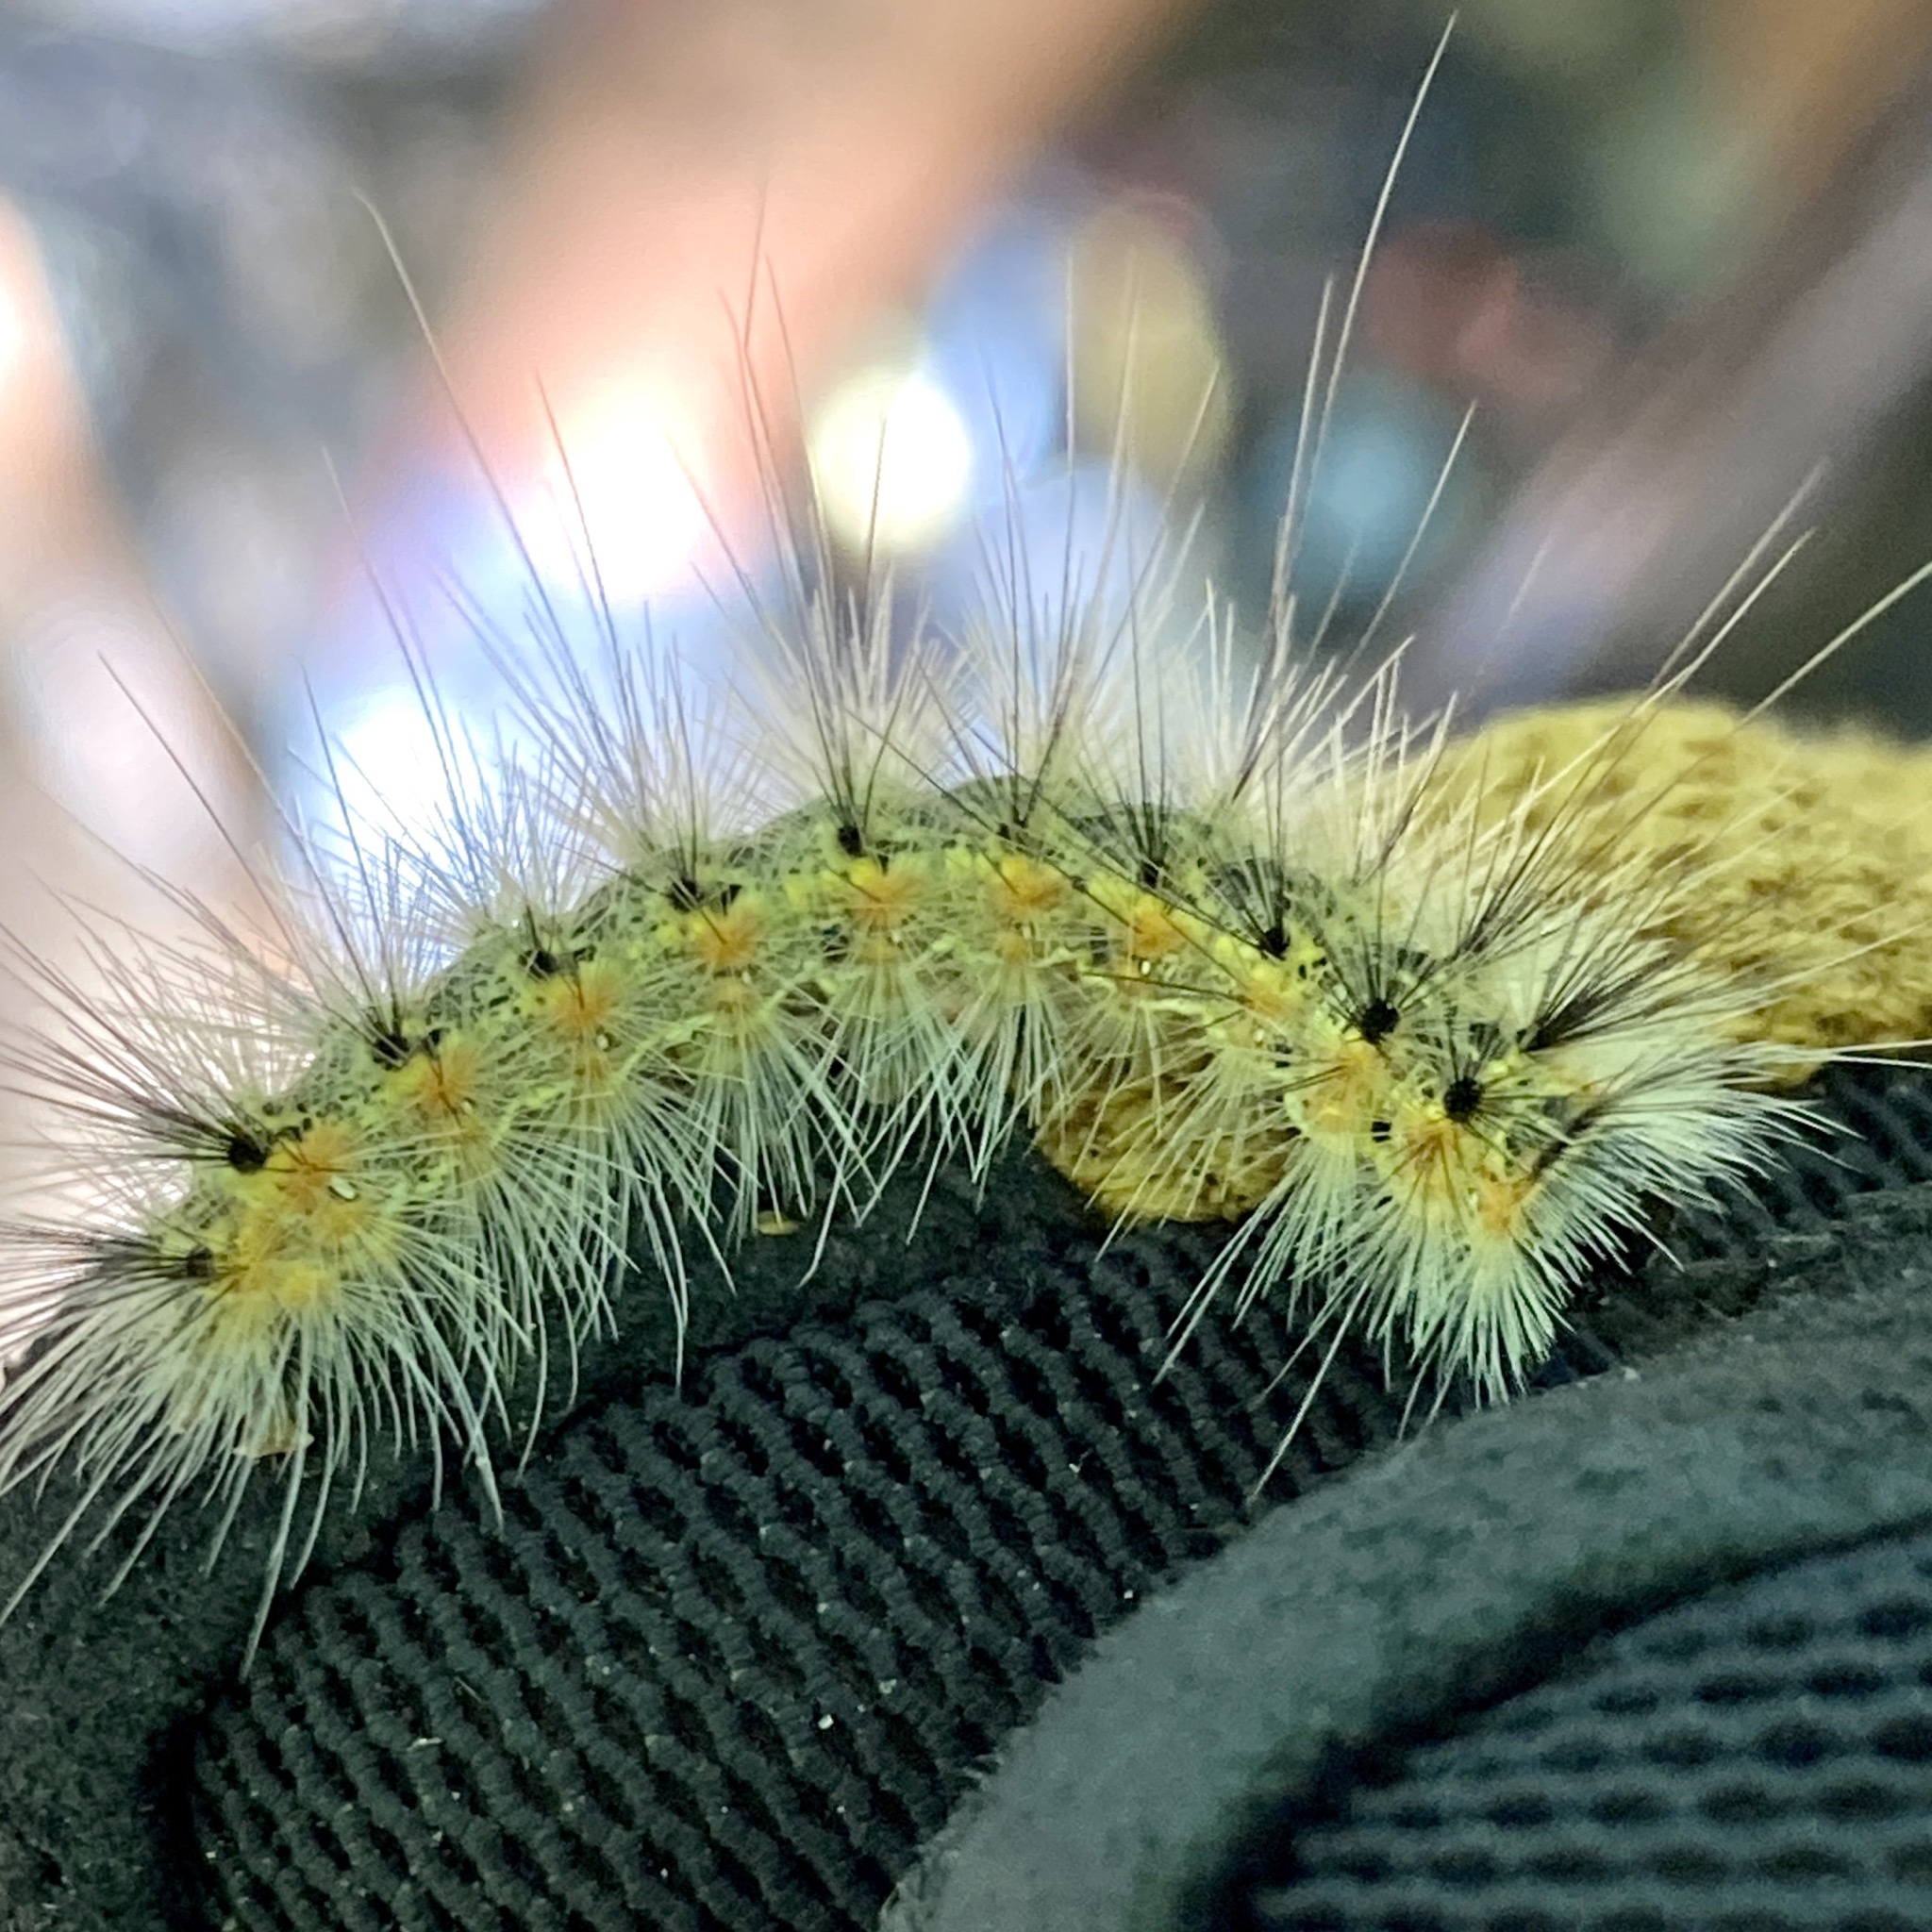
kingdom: Animalia
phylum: Arthropoda
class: Insecta
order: Lepidoptera
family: Erebidae
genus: Hyphantria
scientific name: Hyphantria cunea
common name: American white moth
